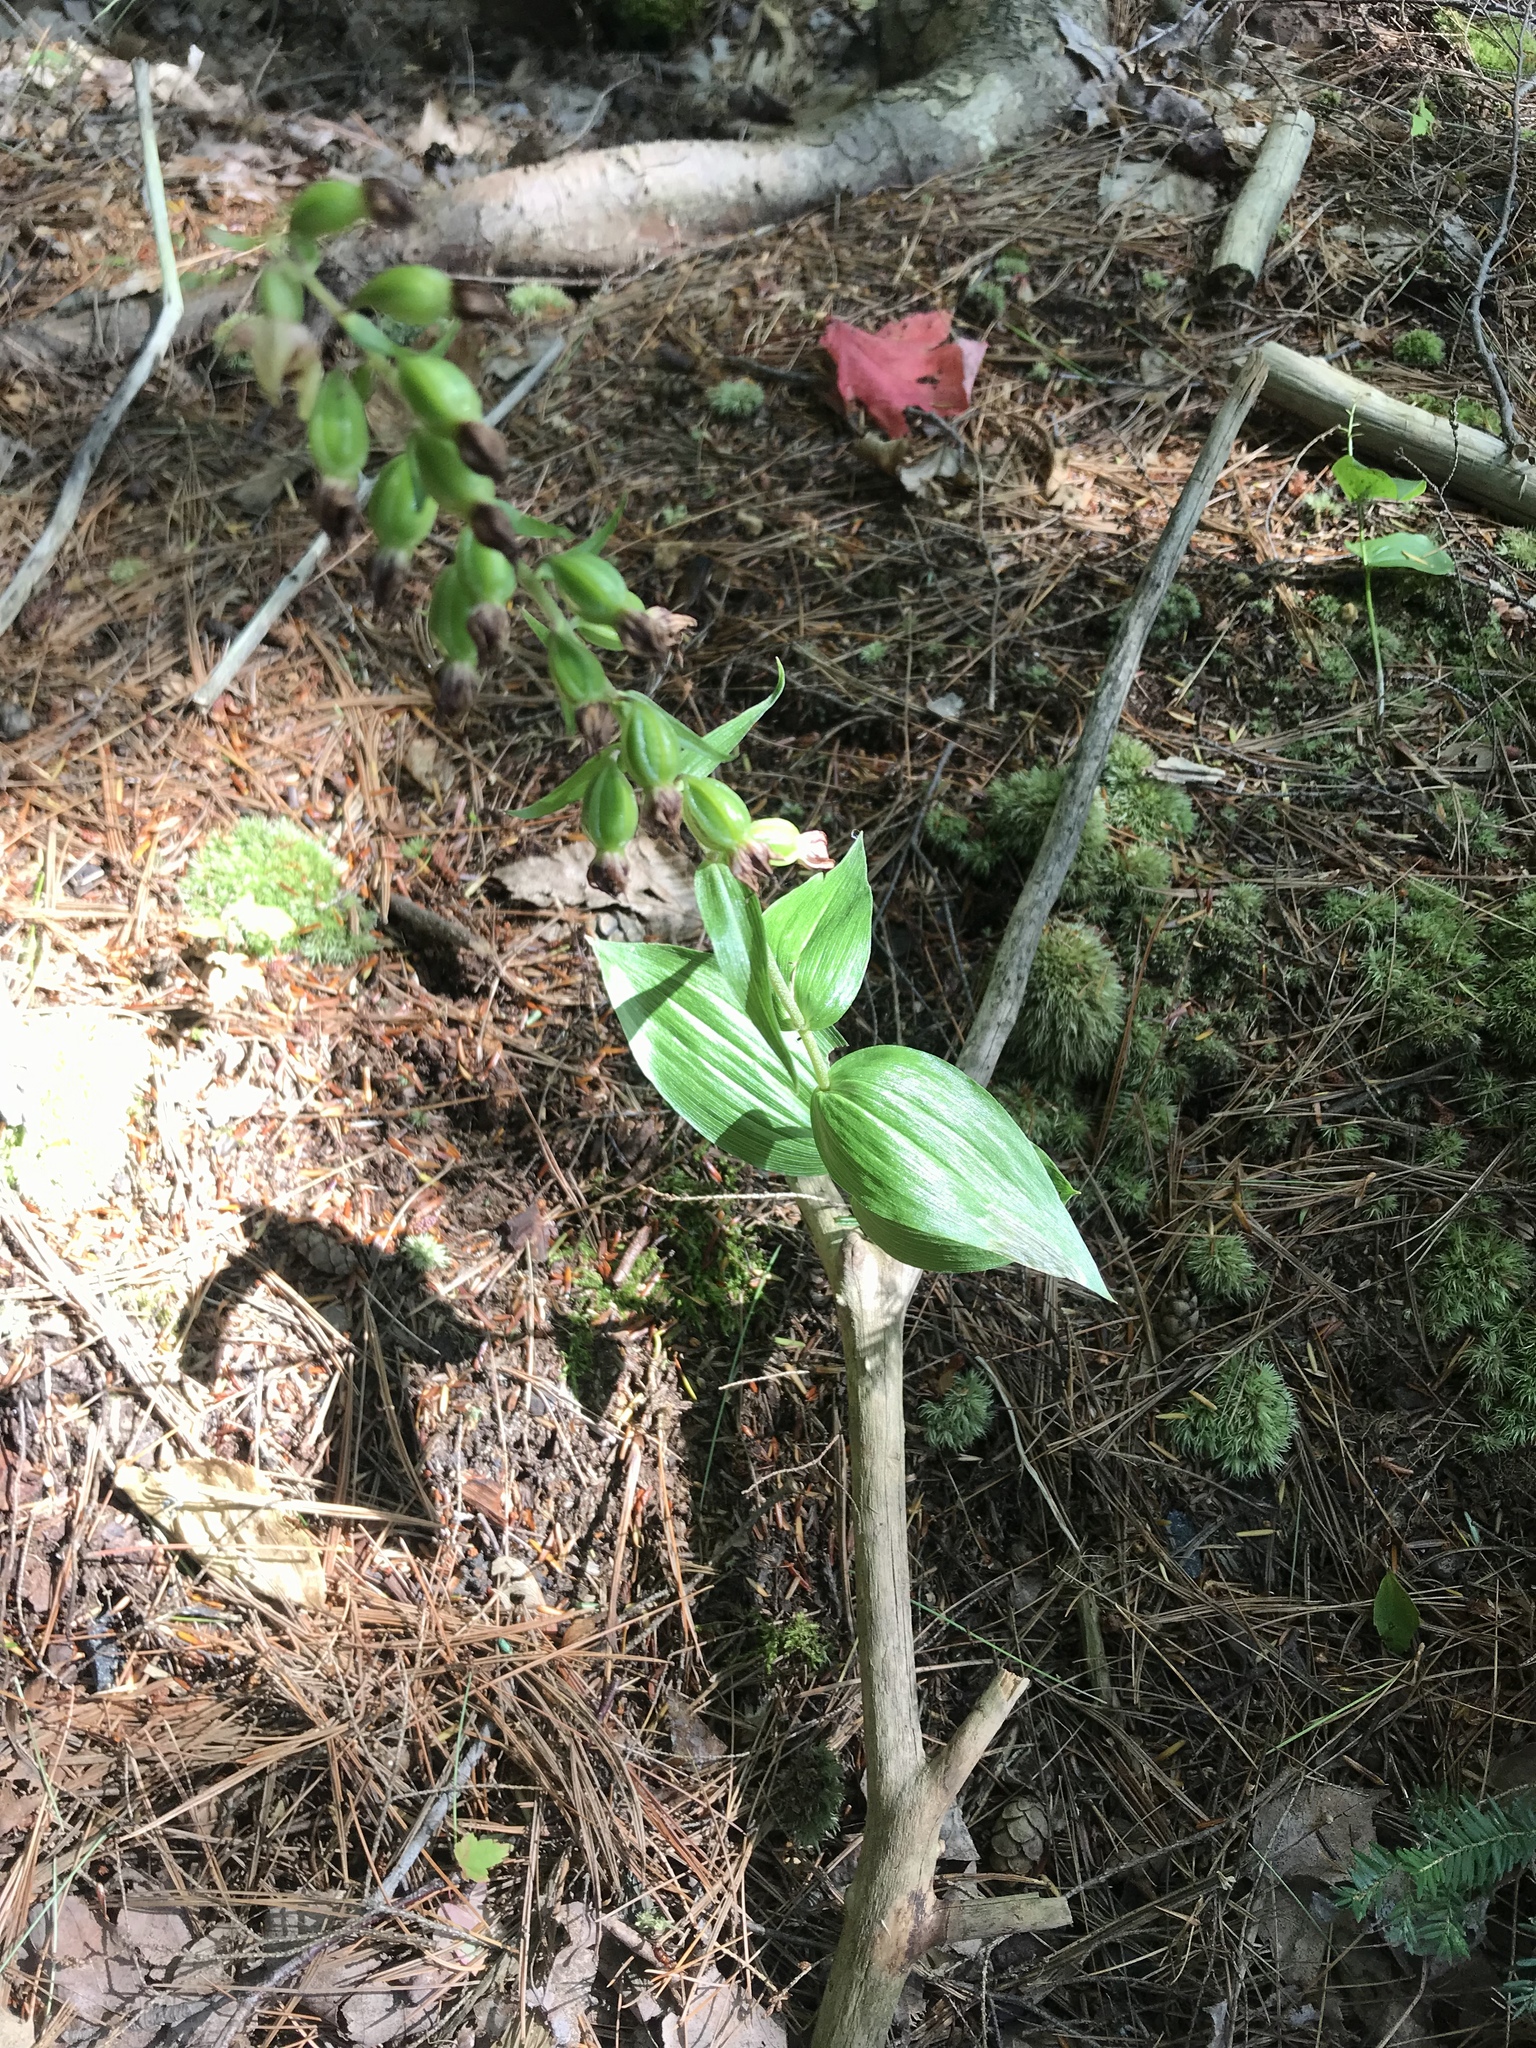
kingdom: Plantae
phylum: Tracheophyta
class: Liliopsida
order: Asparagales
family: Orchidaceae
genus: Epipactis
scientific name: Epipactis helleborine
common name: Broad-leaved helleborine
